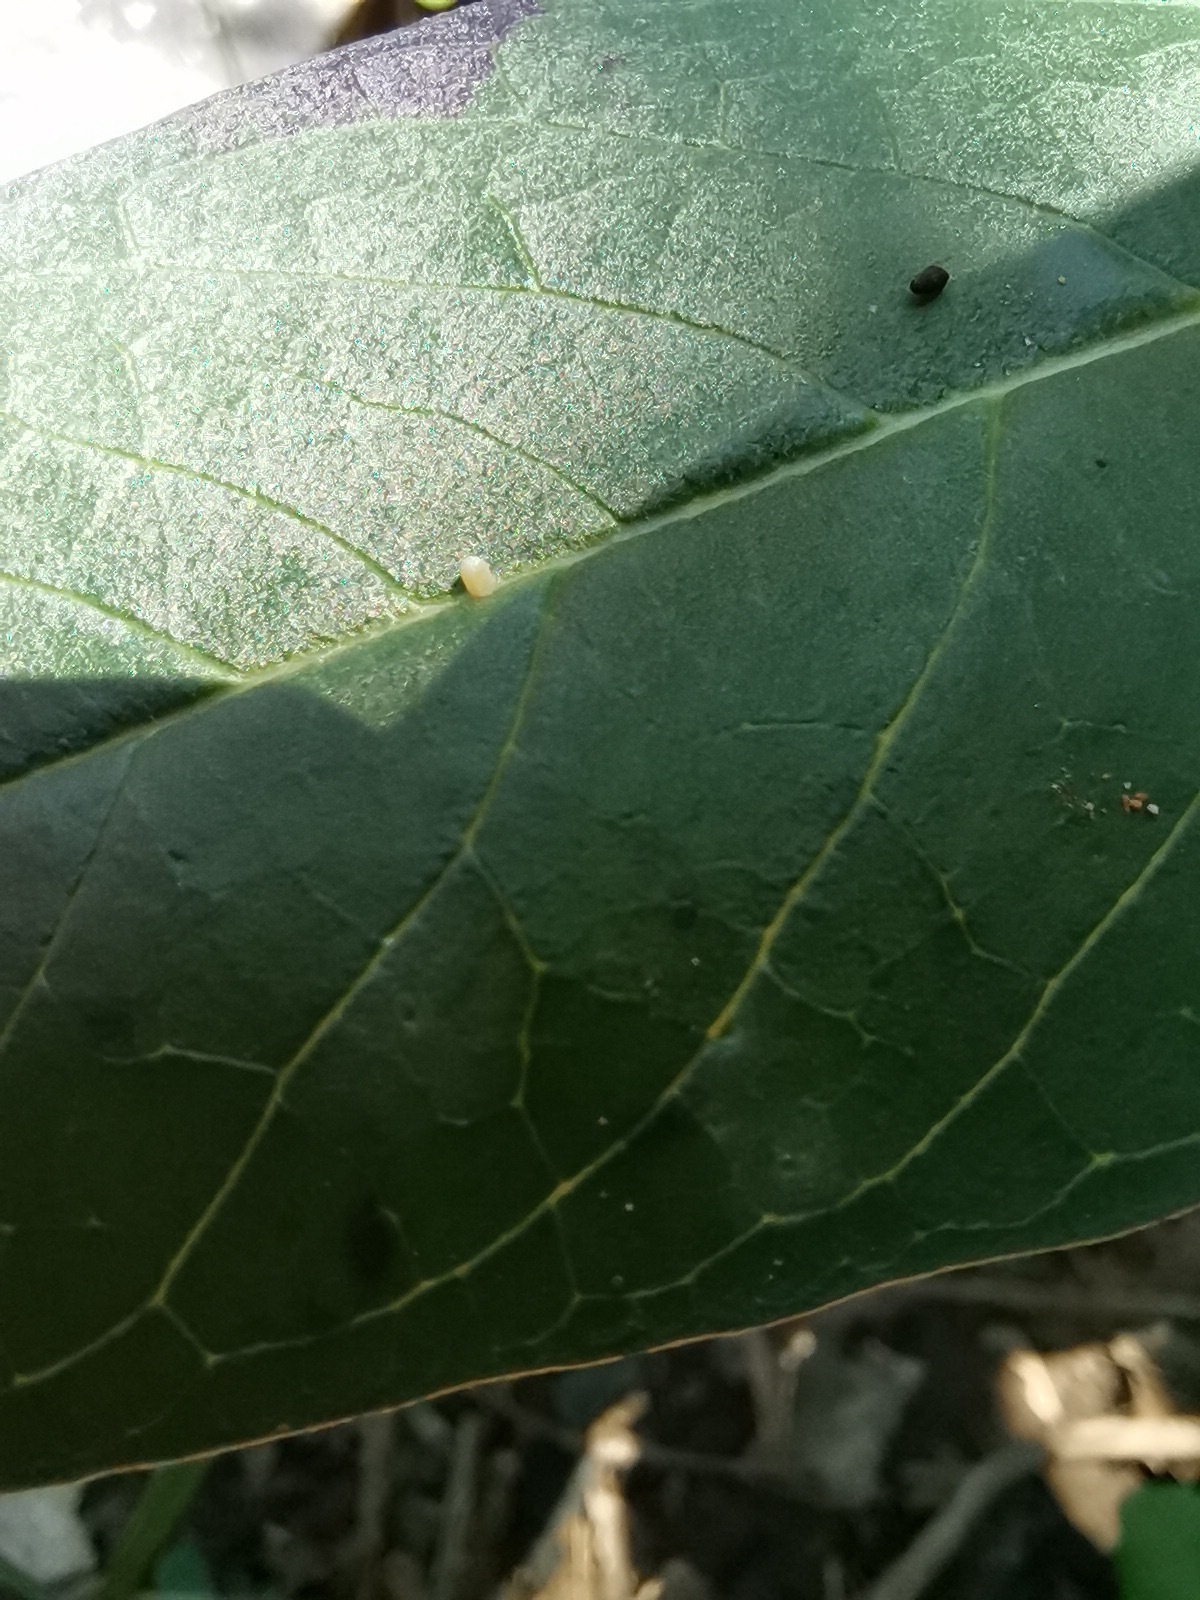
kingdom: Animalia
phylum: Arthropoda
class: Insecta
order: Lepidoptera
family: Nymphalidae
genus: Danaus
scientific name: Danaus plexippus
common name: Monarch
